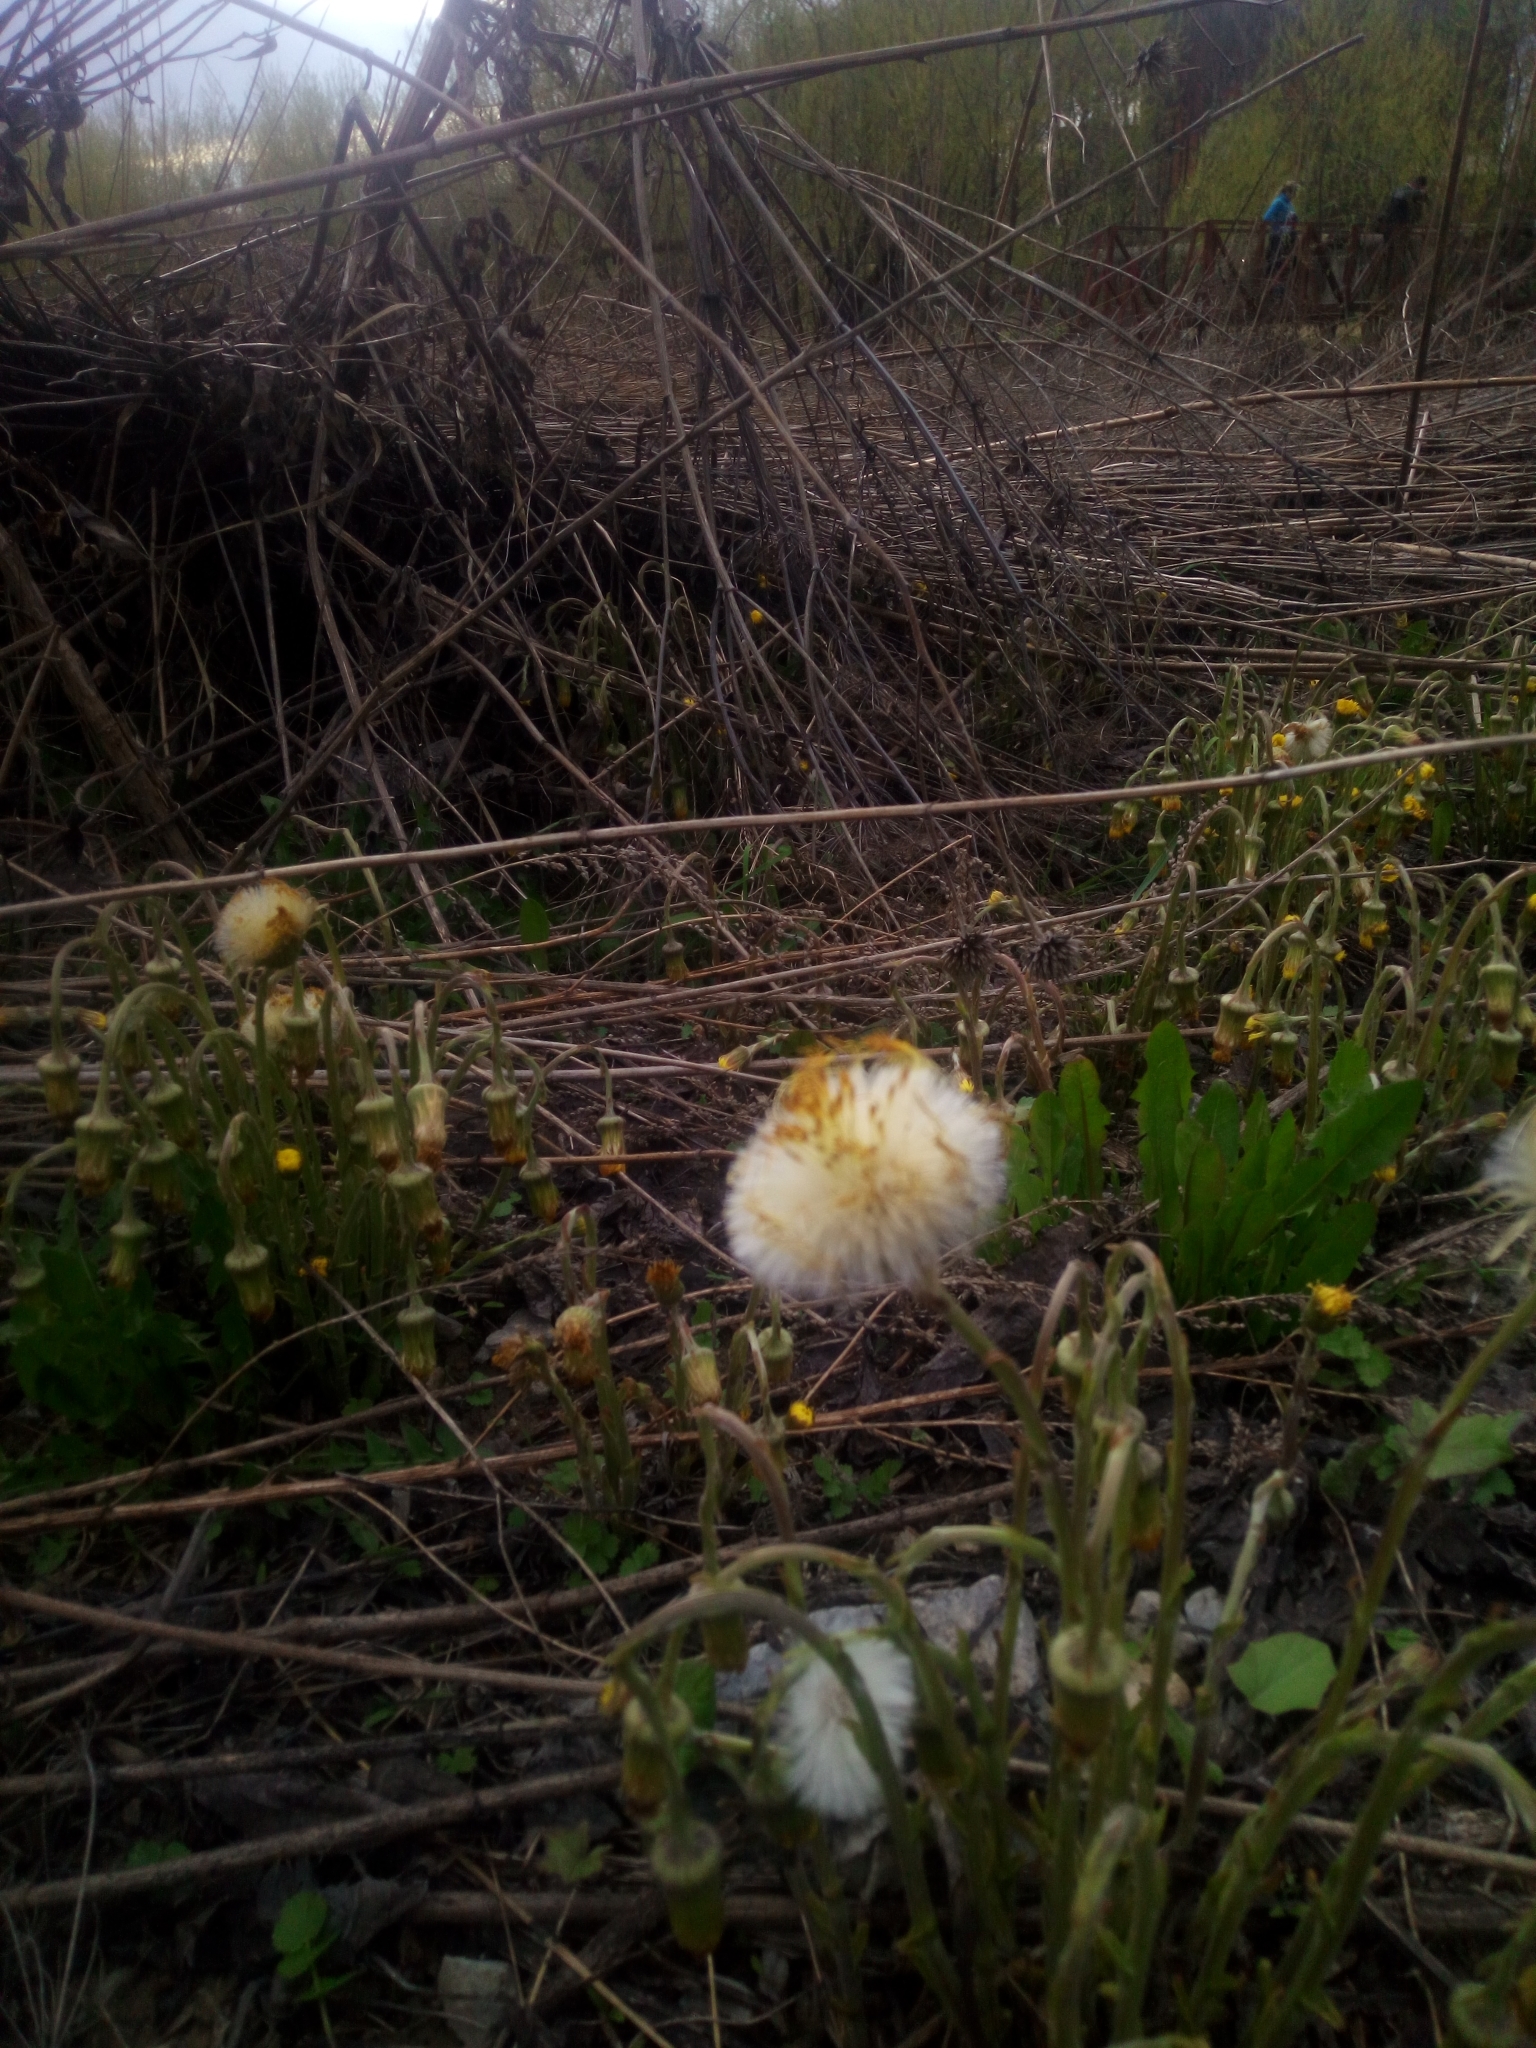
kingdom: Plantae
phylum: Tracheophyta
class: Magnoliopsida
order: Asterales
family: Asteraceae
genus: Tussilago
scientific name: Tussilago farfara
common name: Coltsfoot
